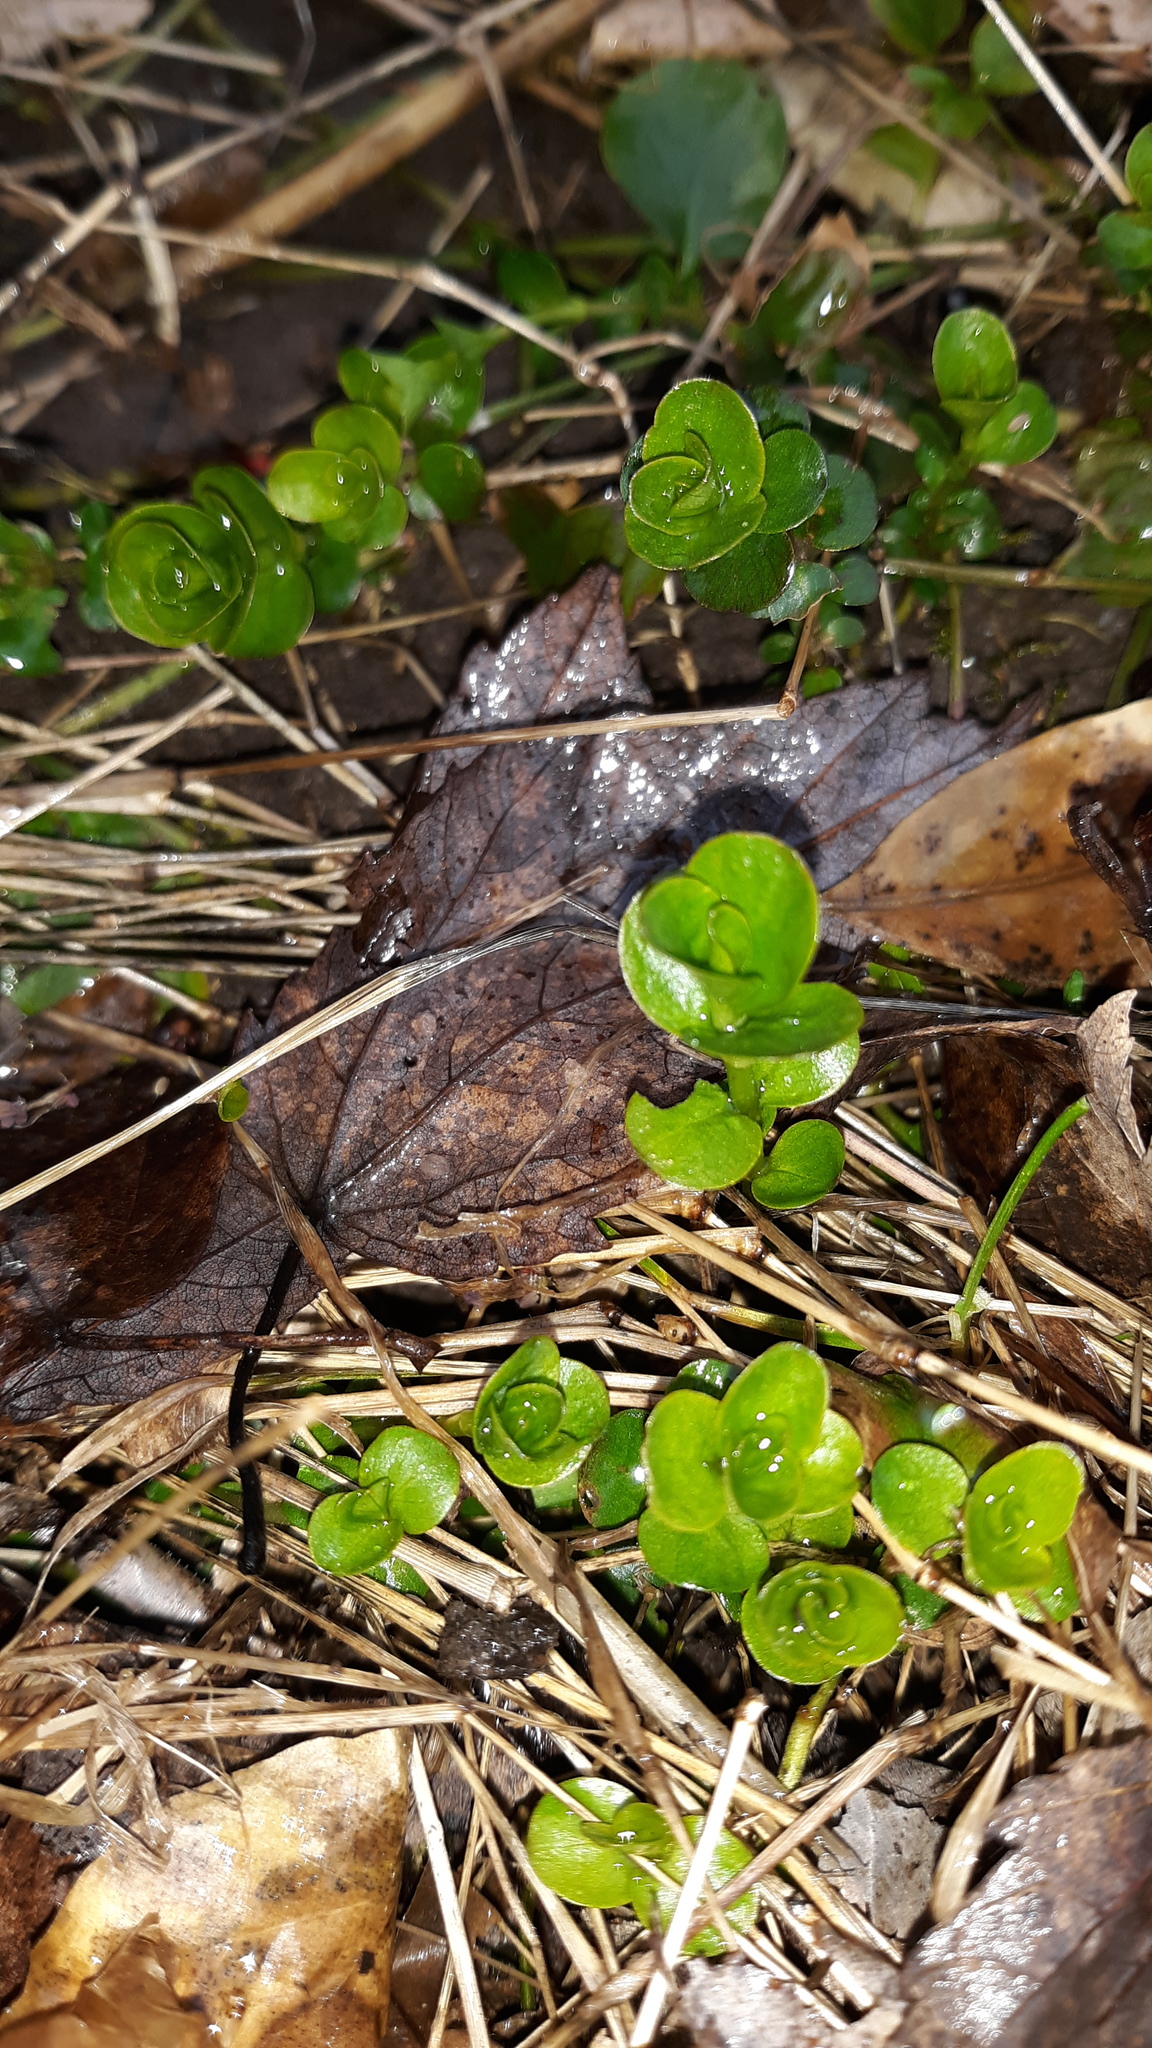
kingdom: Plantae
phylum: Tracheophyta
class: Magnoliopsida
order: Ericales
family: Primulaceae
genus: Lysimachia
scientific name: Lysimachia nummularia
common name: Moneywort
